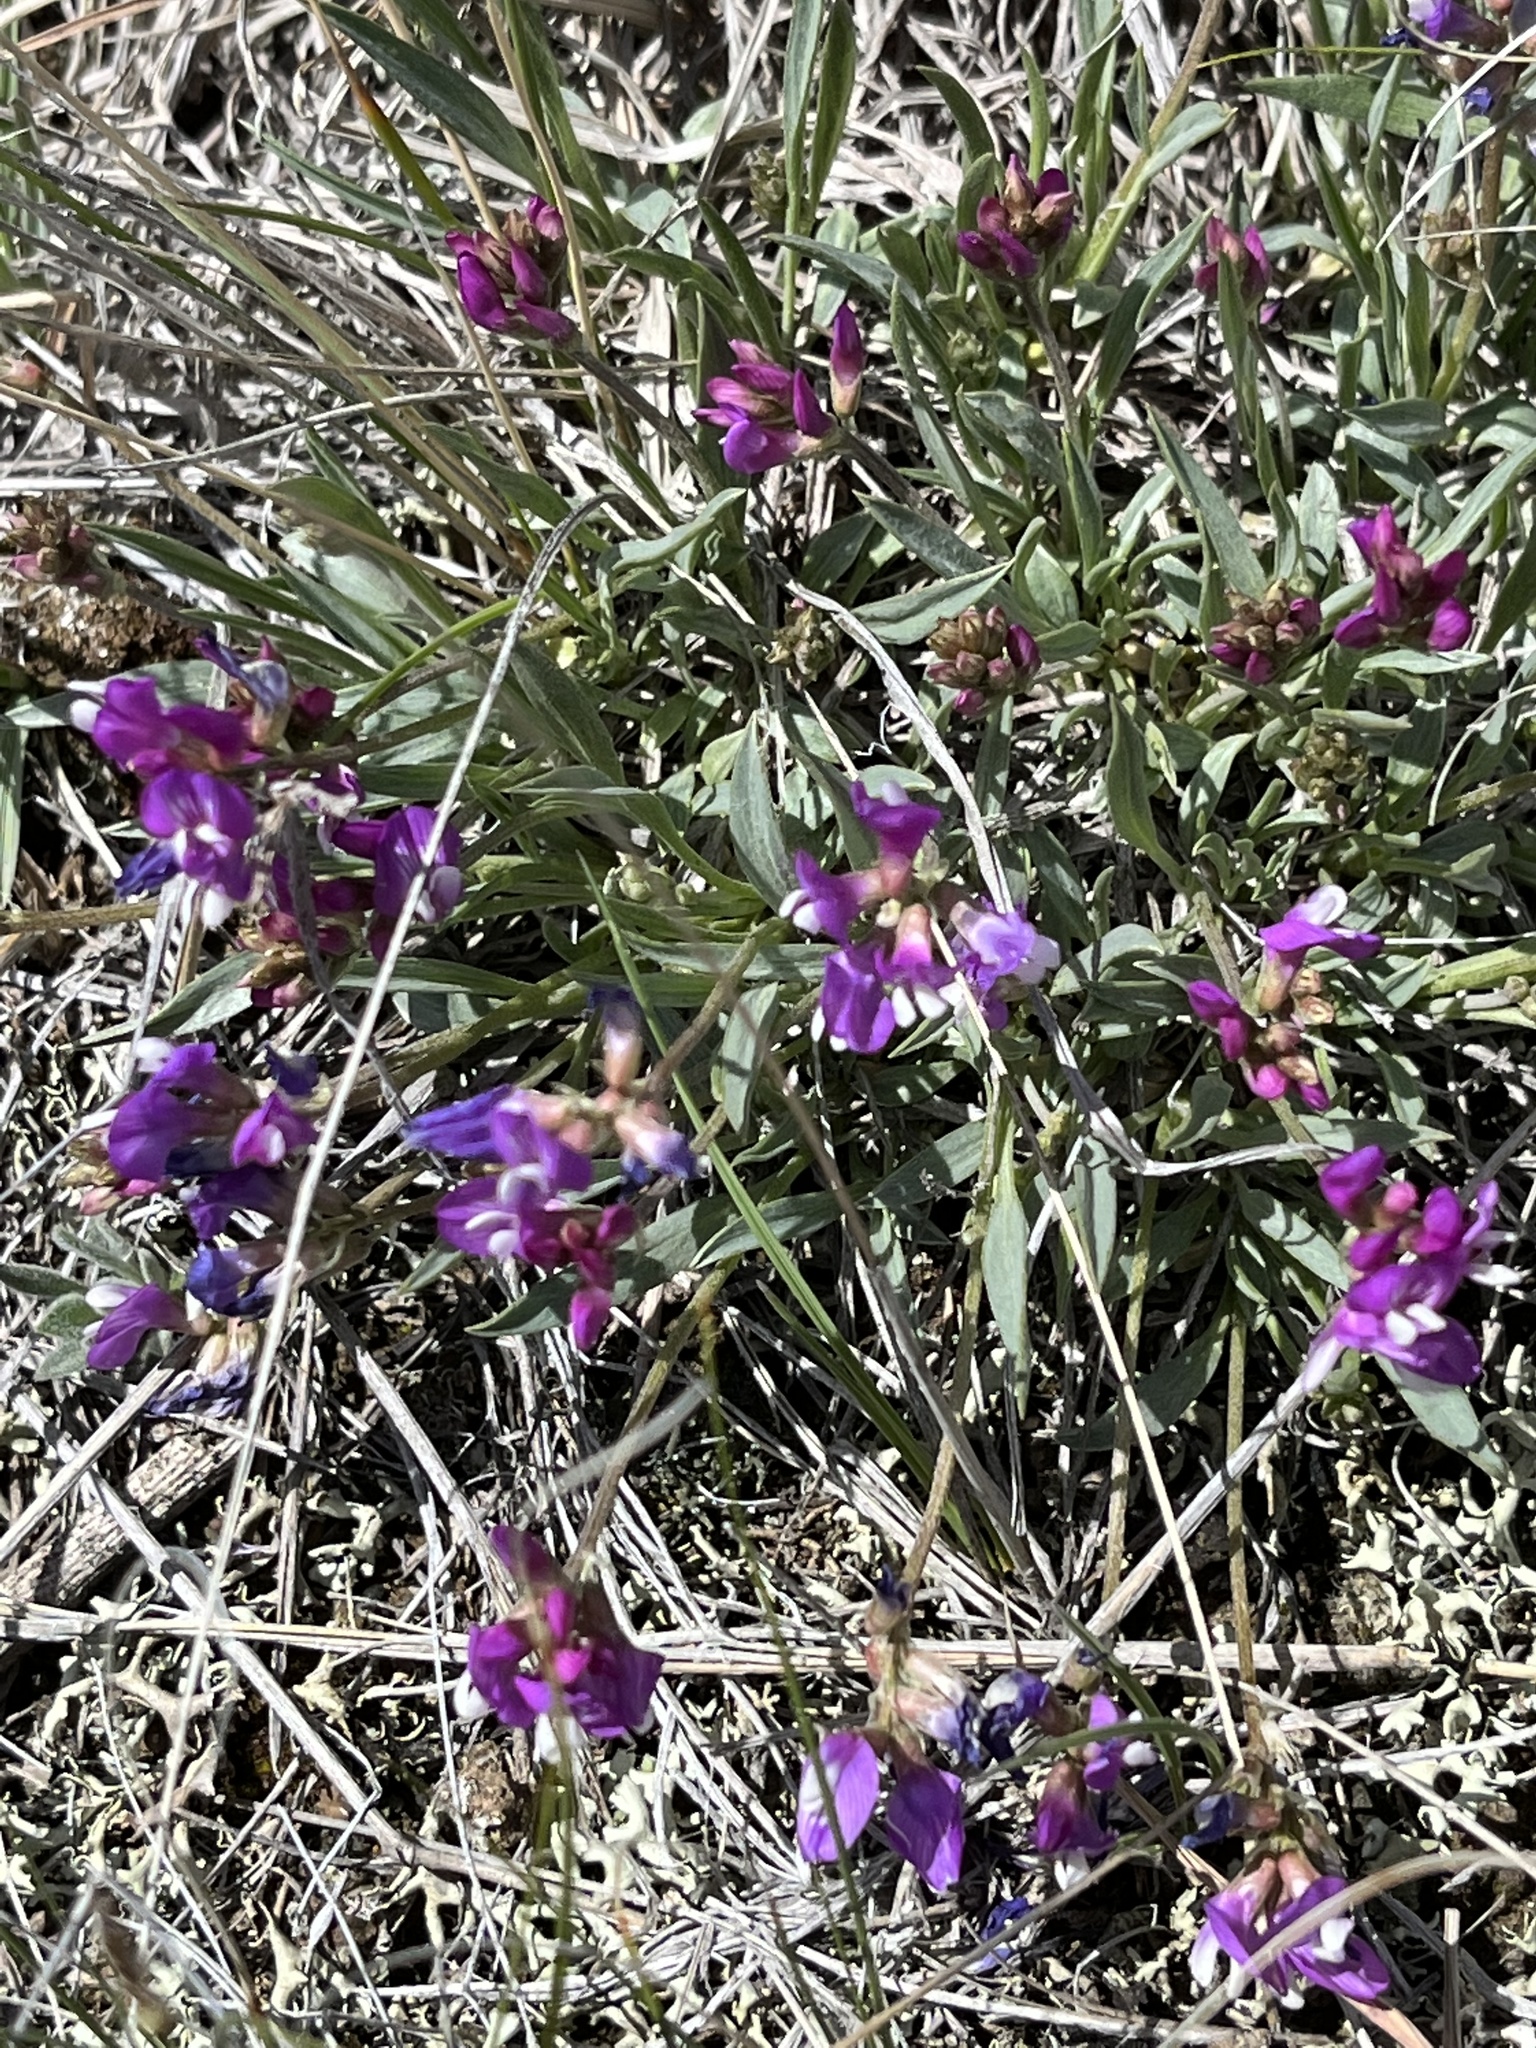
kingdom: Plantae
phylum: Tracheophyta
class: Magnoliopsida
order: Fabales
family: Fabaceae
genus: Astragalus
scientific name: Astragalus spatulatus
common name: Draba milk-vetch
